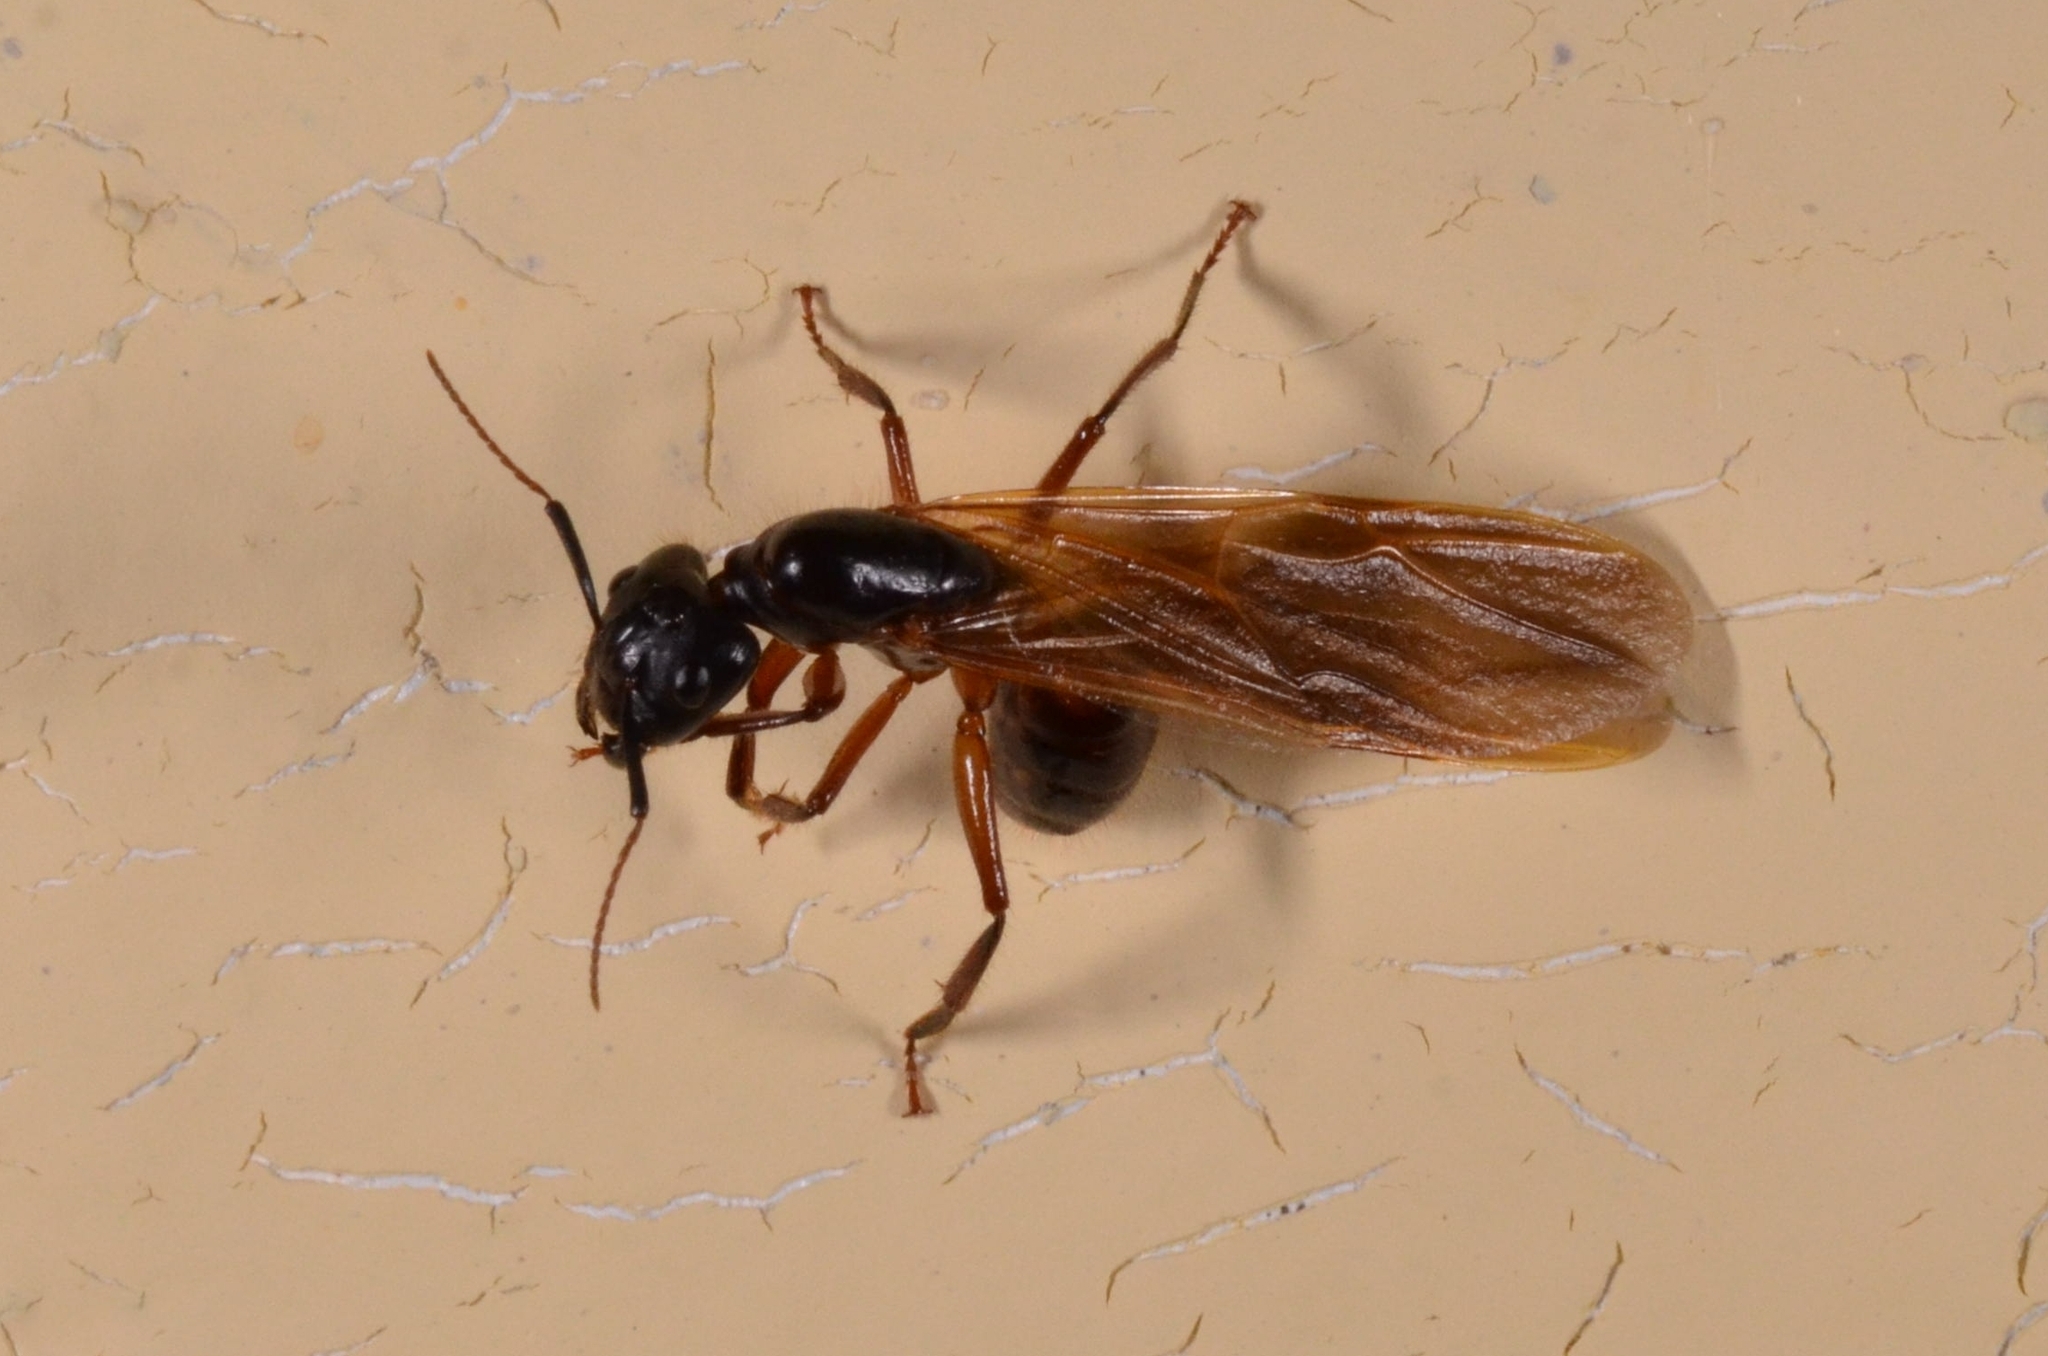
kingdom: Animalia
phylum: Arthropoda
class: Insecta
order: Hymenoptera
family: Formicidae
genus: Camponotus
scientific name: Camponotus pressipes
